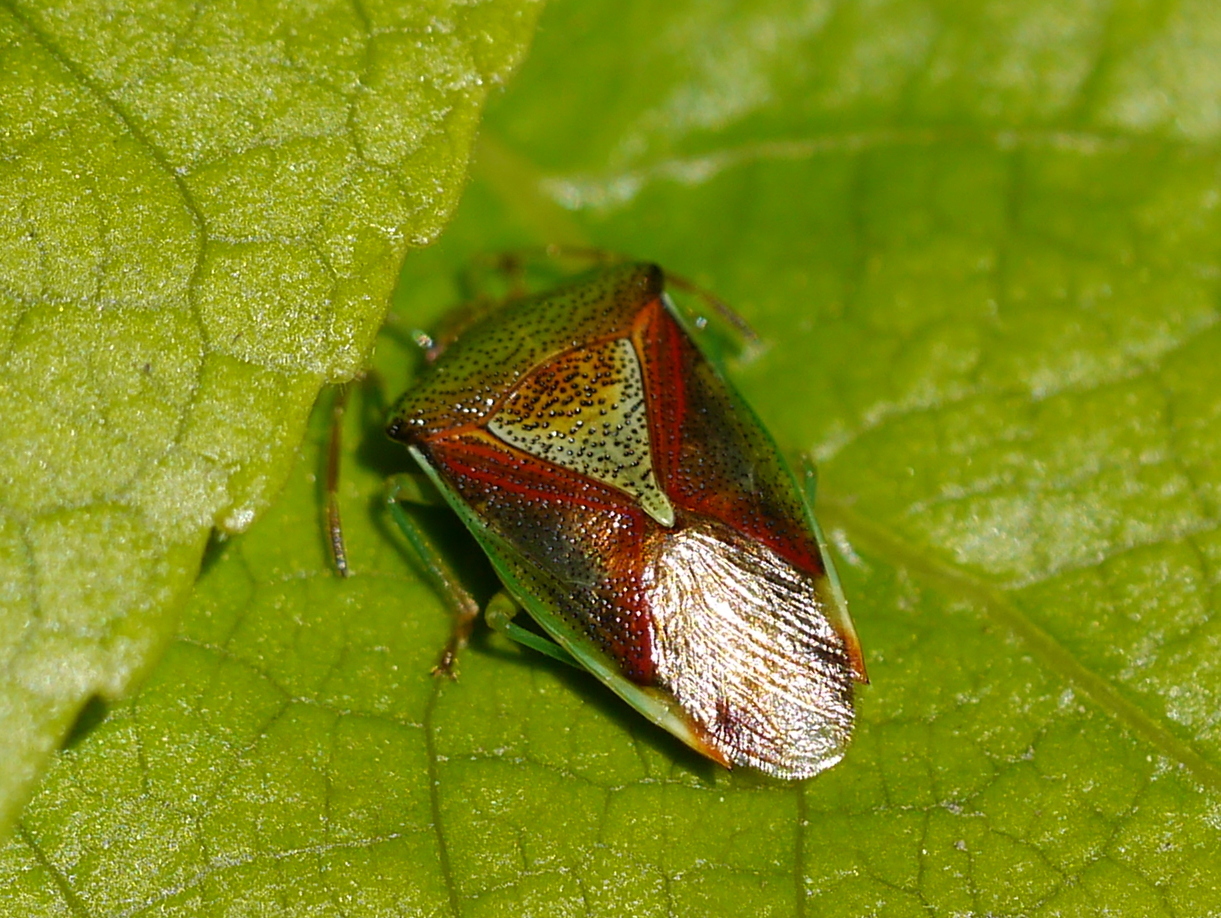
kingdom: Animalia
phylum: Arthropoda
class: Insecta
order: Hemiptera
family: Acanthosomatidae
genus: Elasmostethus
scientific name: Elasmostethus interstinctus
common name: Birch shieldbug
